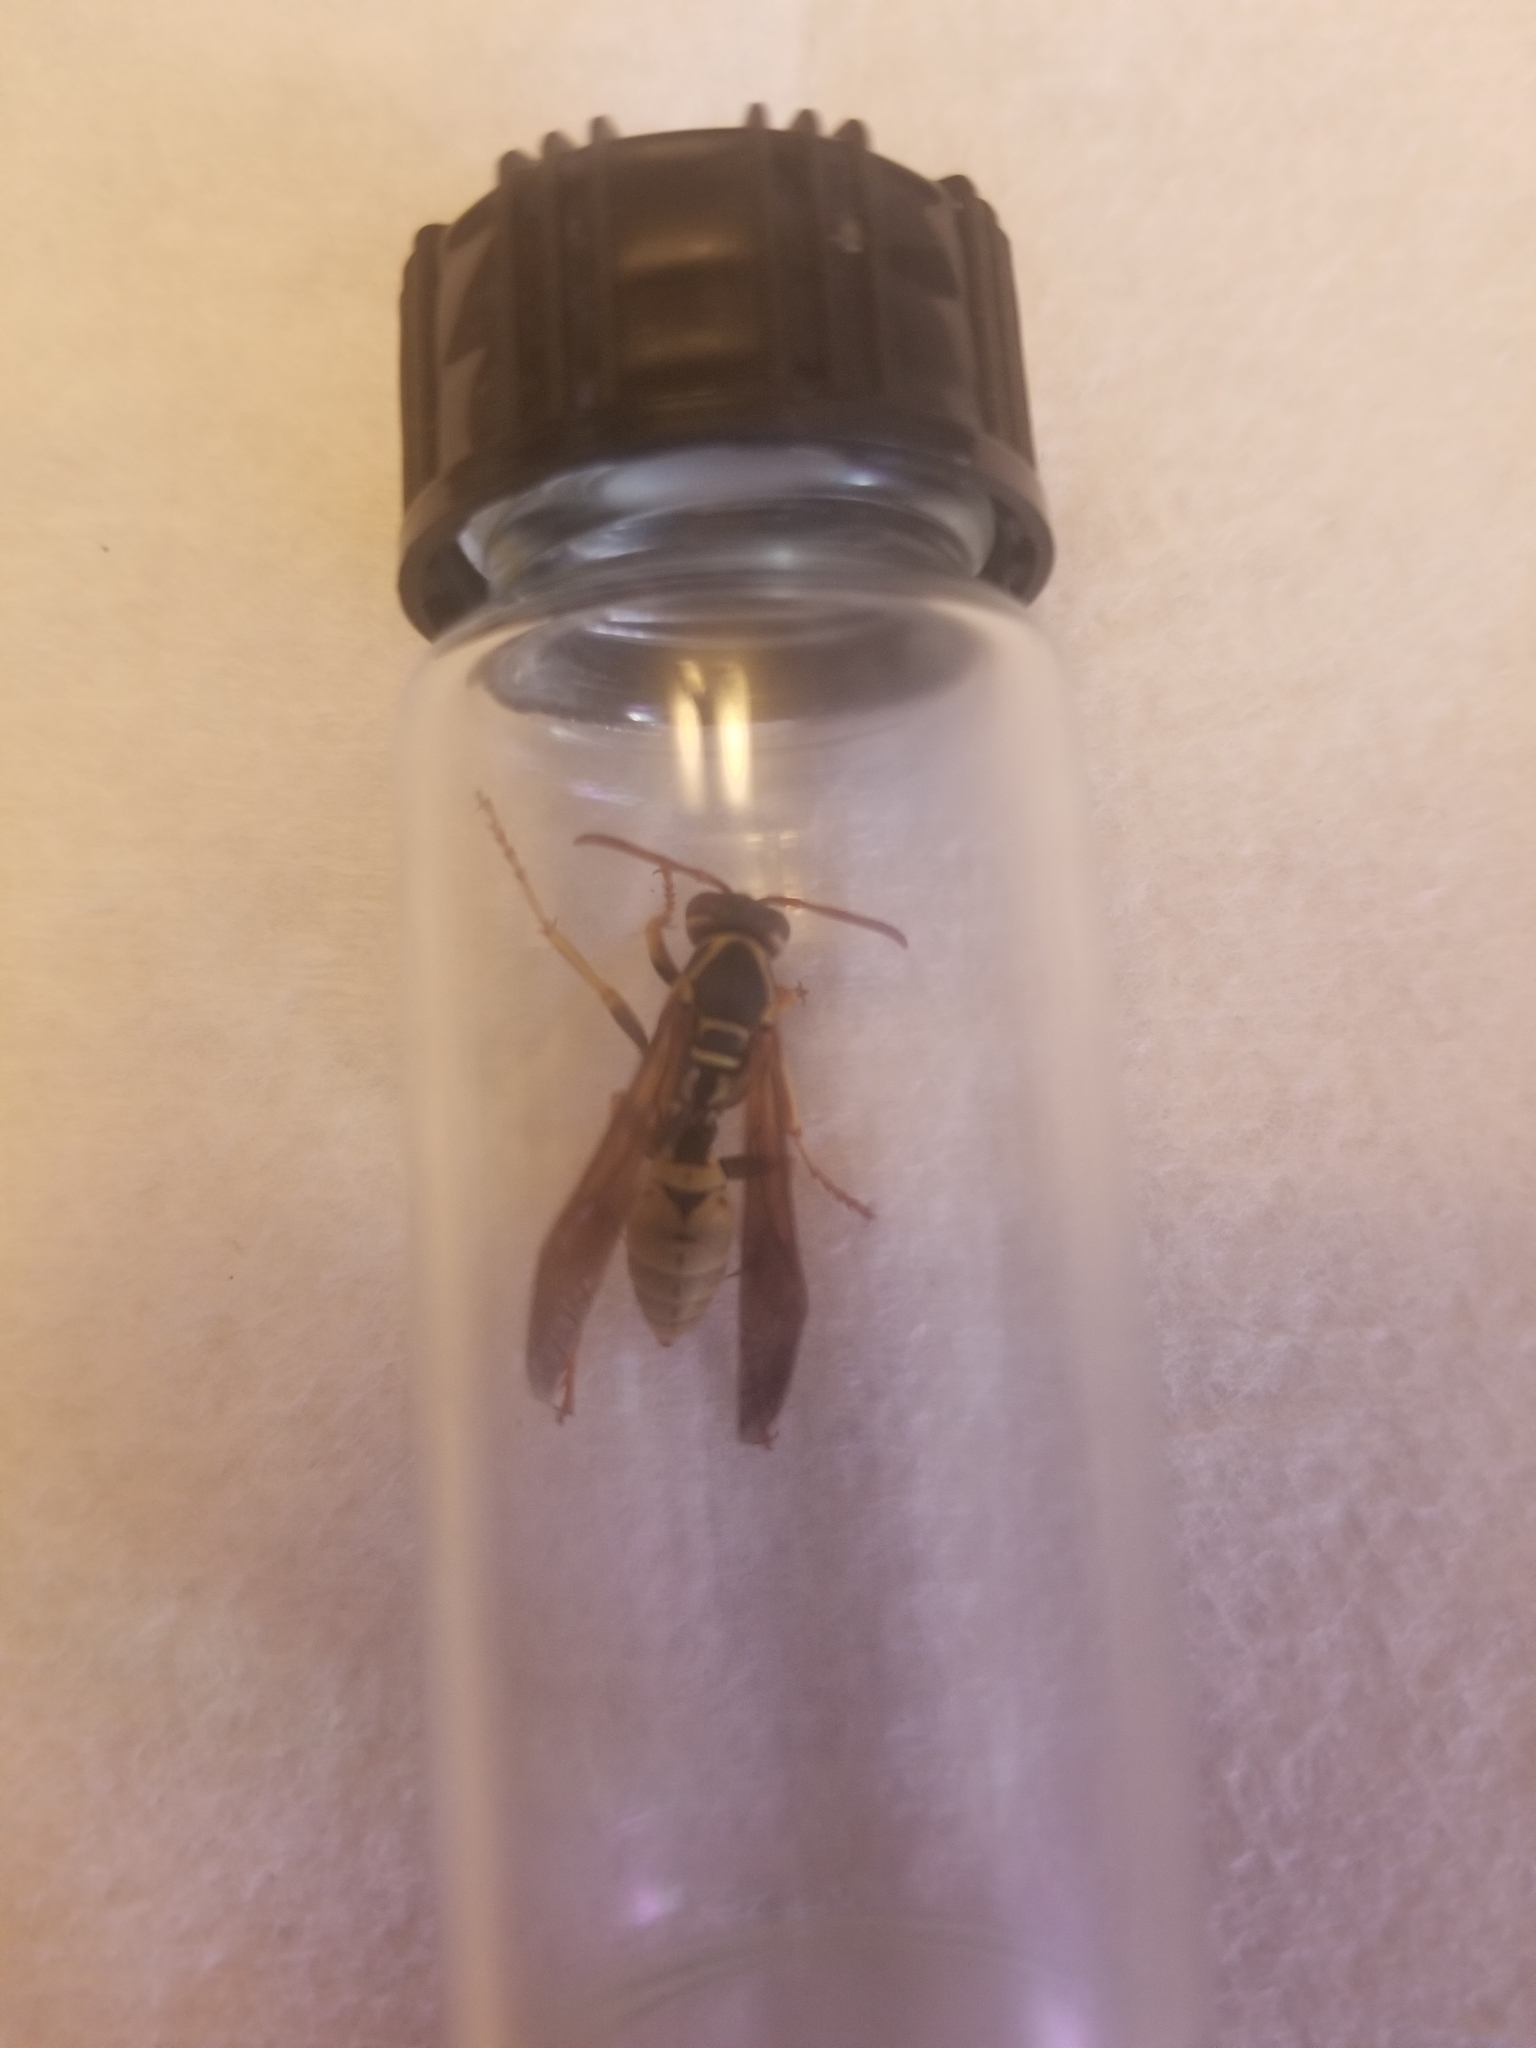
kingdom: Animalia
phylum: Arthropoda
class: Insecta
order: Hymenoptera
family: Eumenidae
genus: Polistes
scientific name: Polistes aurifer
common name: Paper wasp
